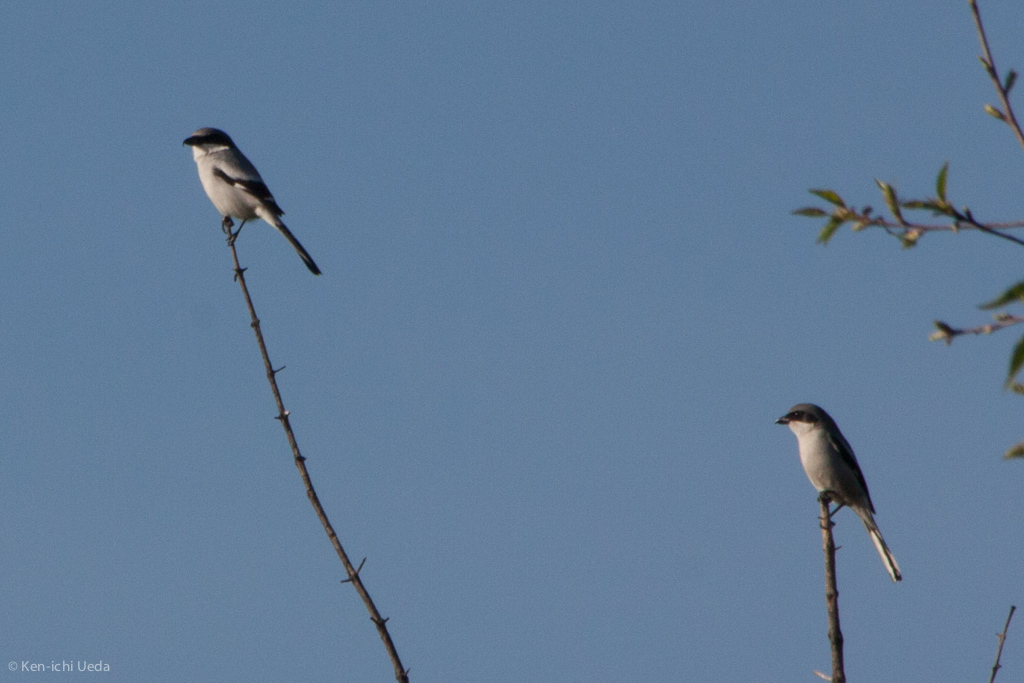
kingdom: Animalia
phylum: Chordata
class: Aves
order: Passeriformes
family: Laniidae
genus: Lanius
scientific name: Lanius ludovicianus
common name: Loggerhead shrike
